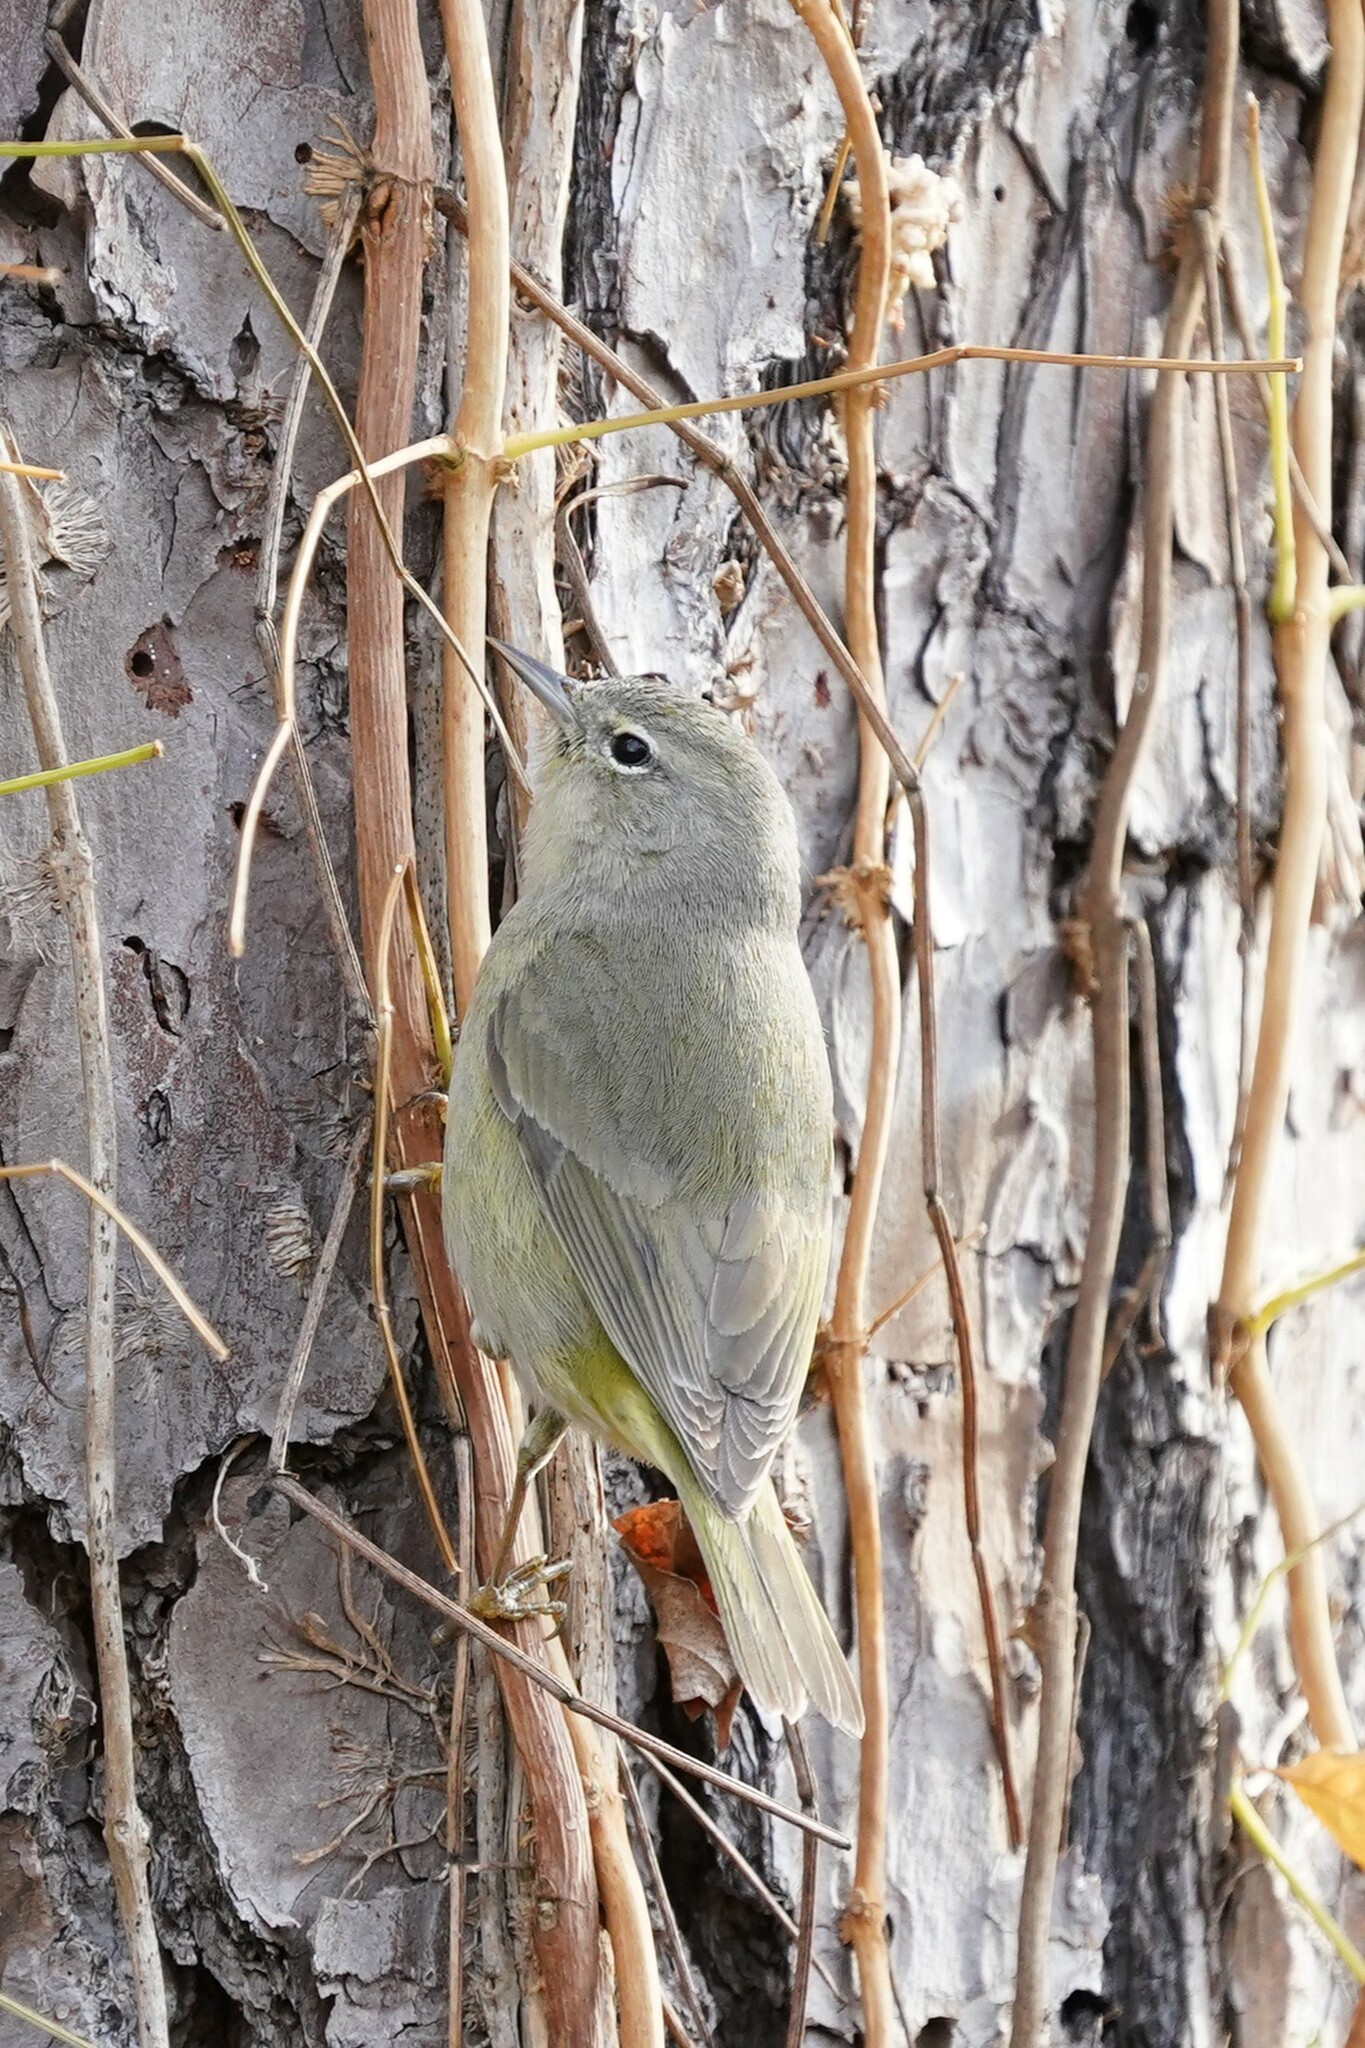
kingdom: Animalia
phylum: Chordata
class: Aves
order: Passeriformes
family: Parulidae
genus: Leiothlypis
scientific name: Leiothlypis celata
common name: Orange-crowned warbler
